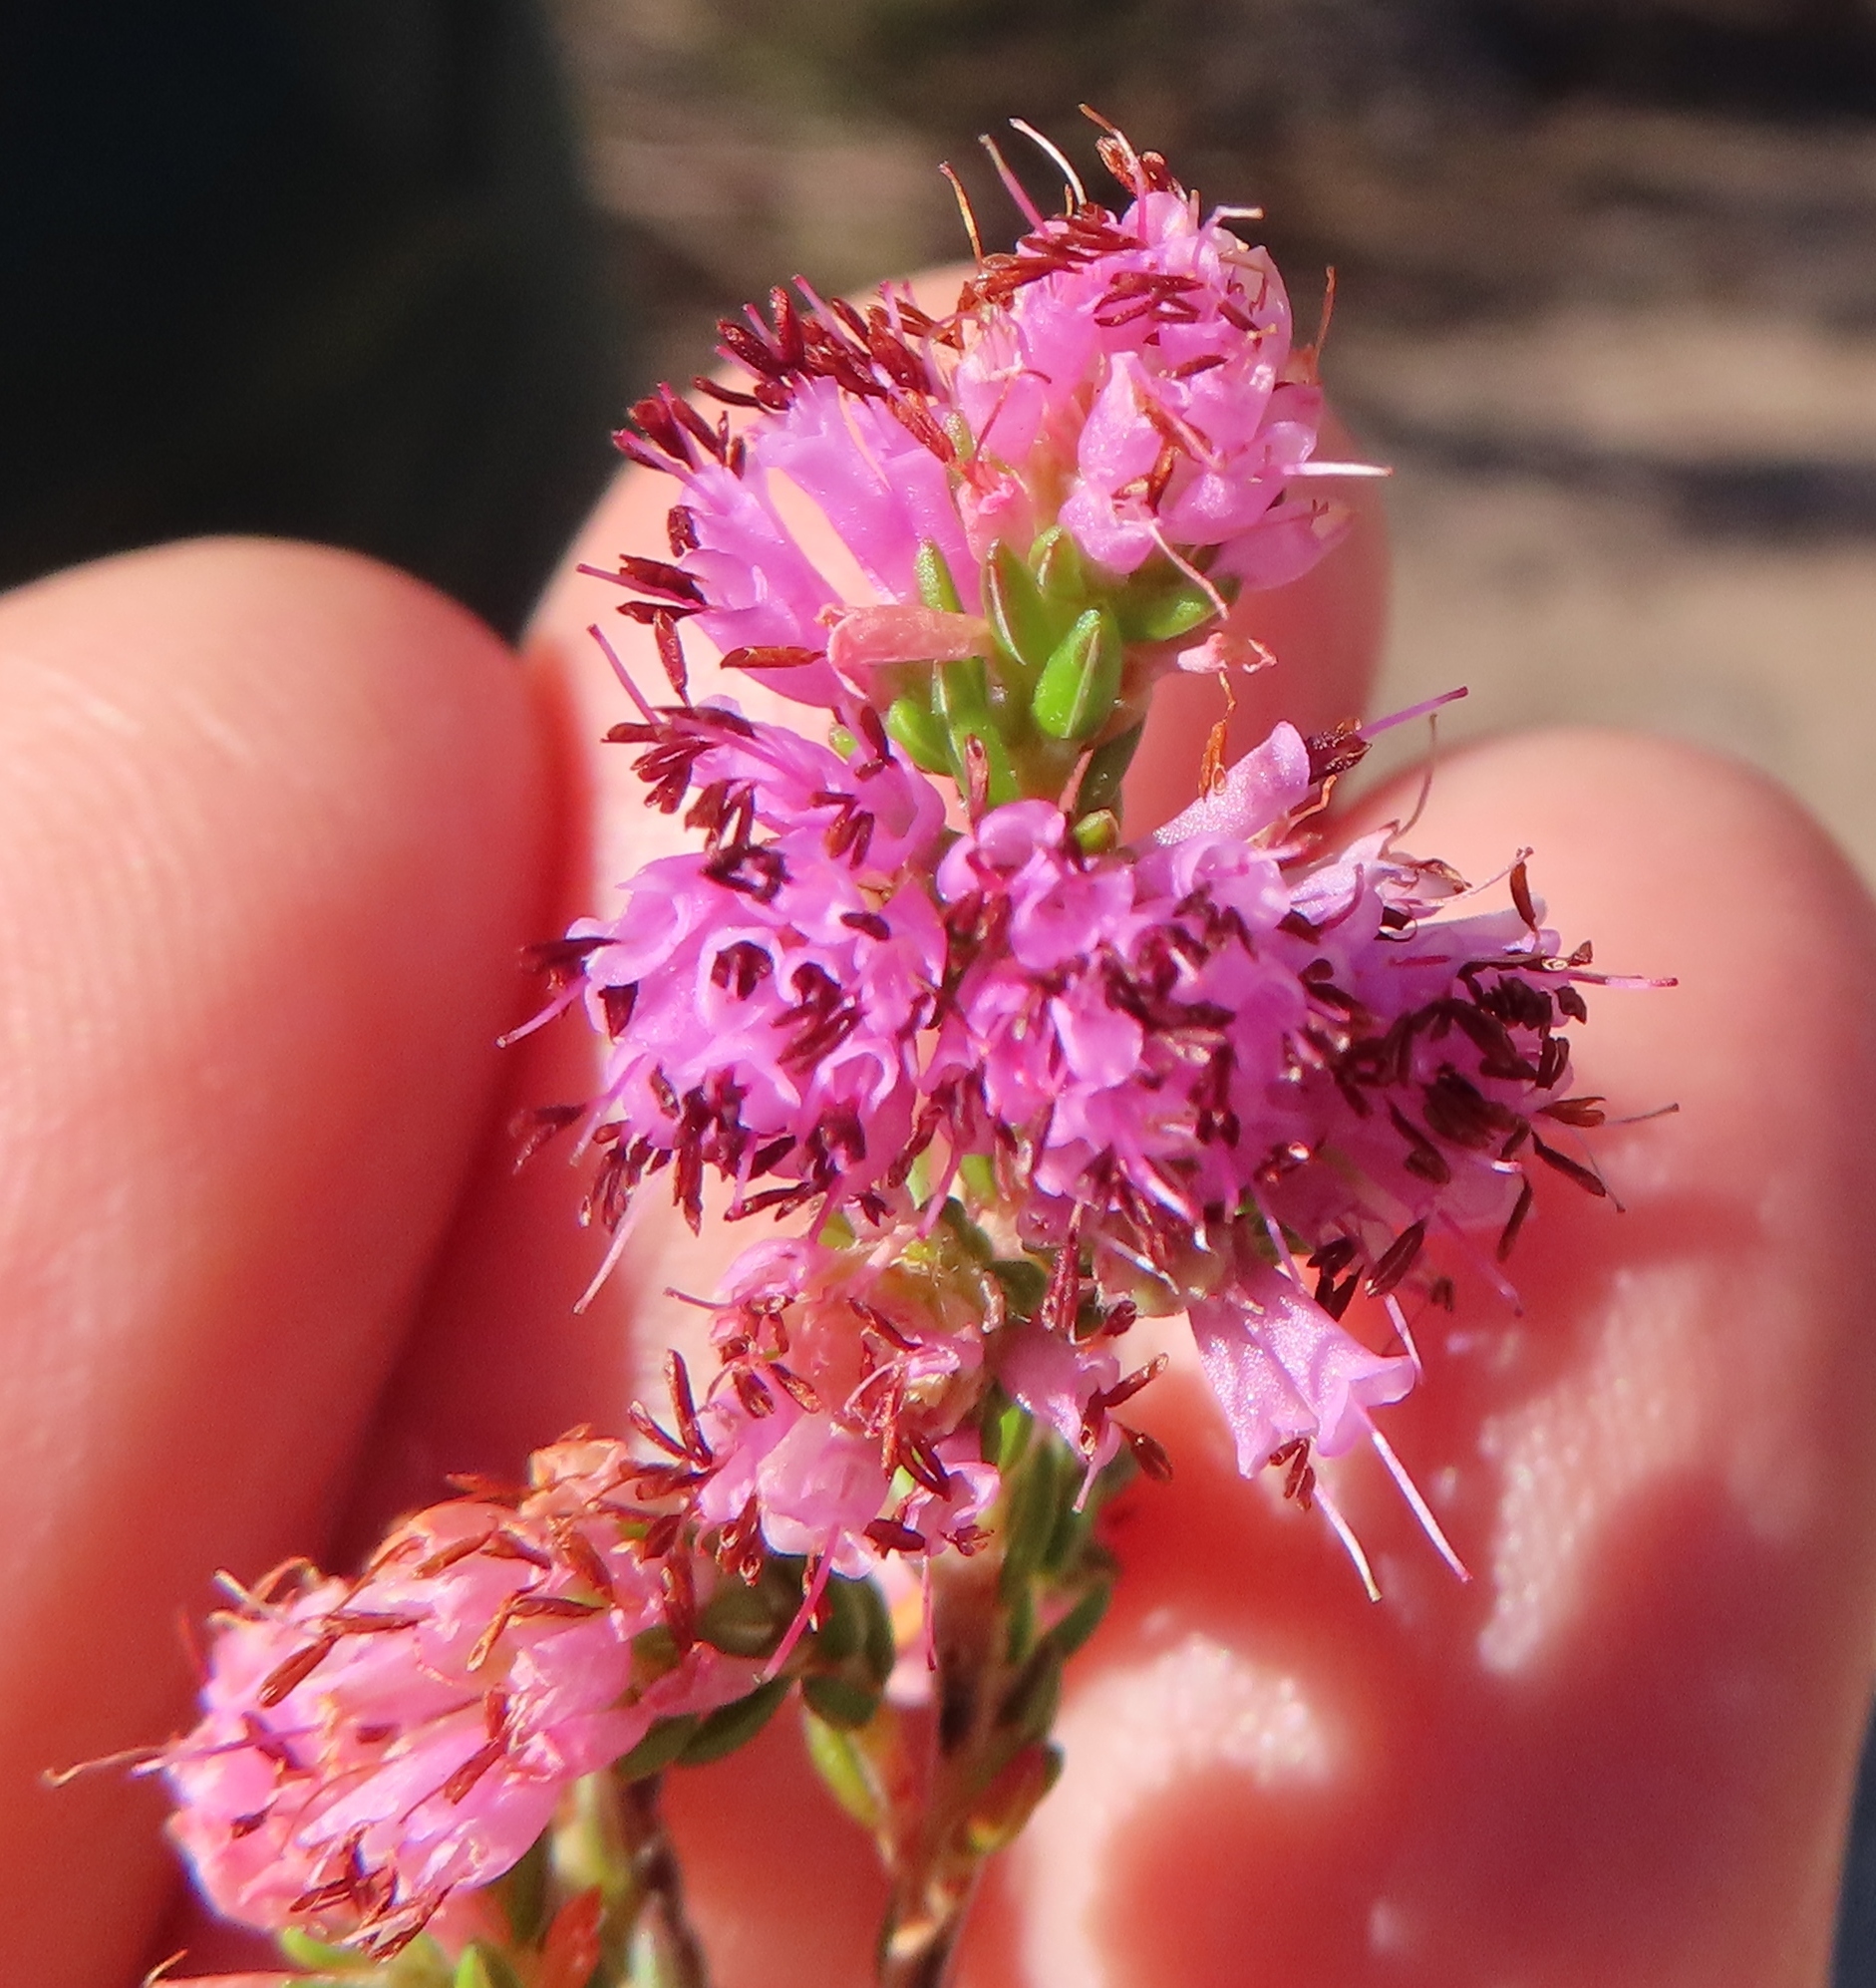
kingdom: Plantae
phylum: Tracheophyta
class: Magnoliopsida
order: Ericales
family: Ericaceae
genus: Erica
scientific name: Erica labialis
